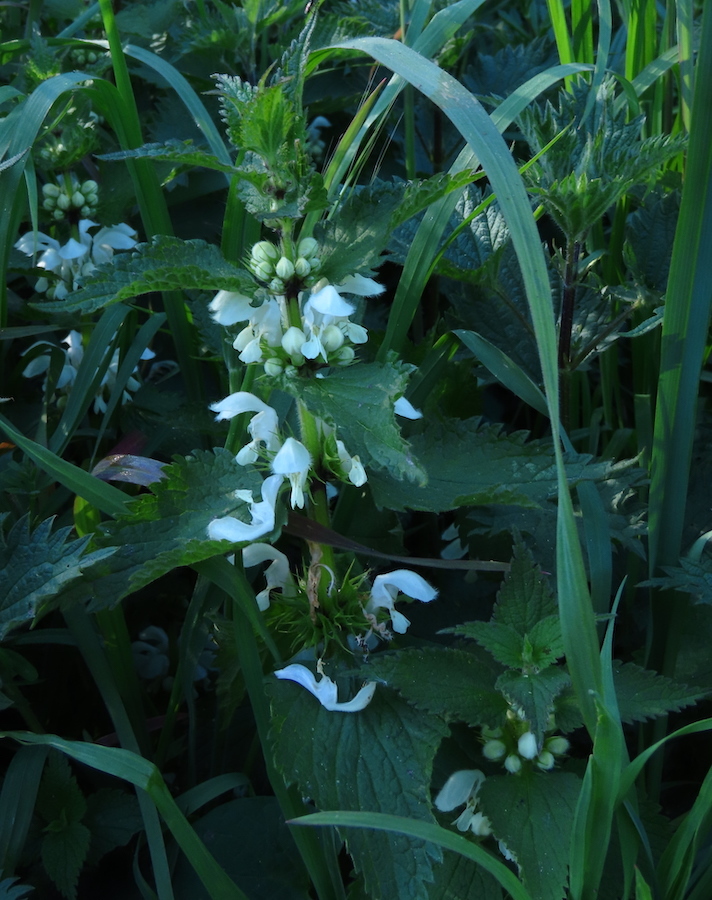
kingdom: Plantae
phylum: Tracheophyta
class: Magnoliopsida
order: Lamiales
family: Lamiaceae
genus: Lamium
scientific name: Lamium album
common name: White dead-nettle
